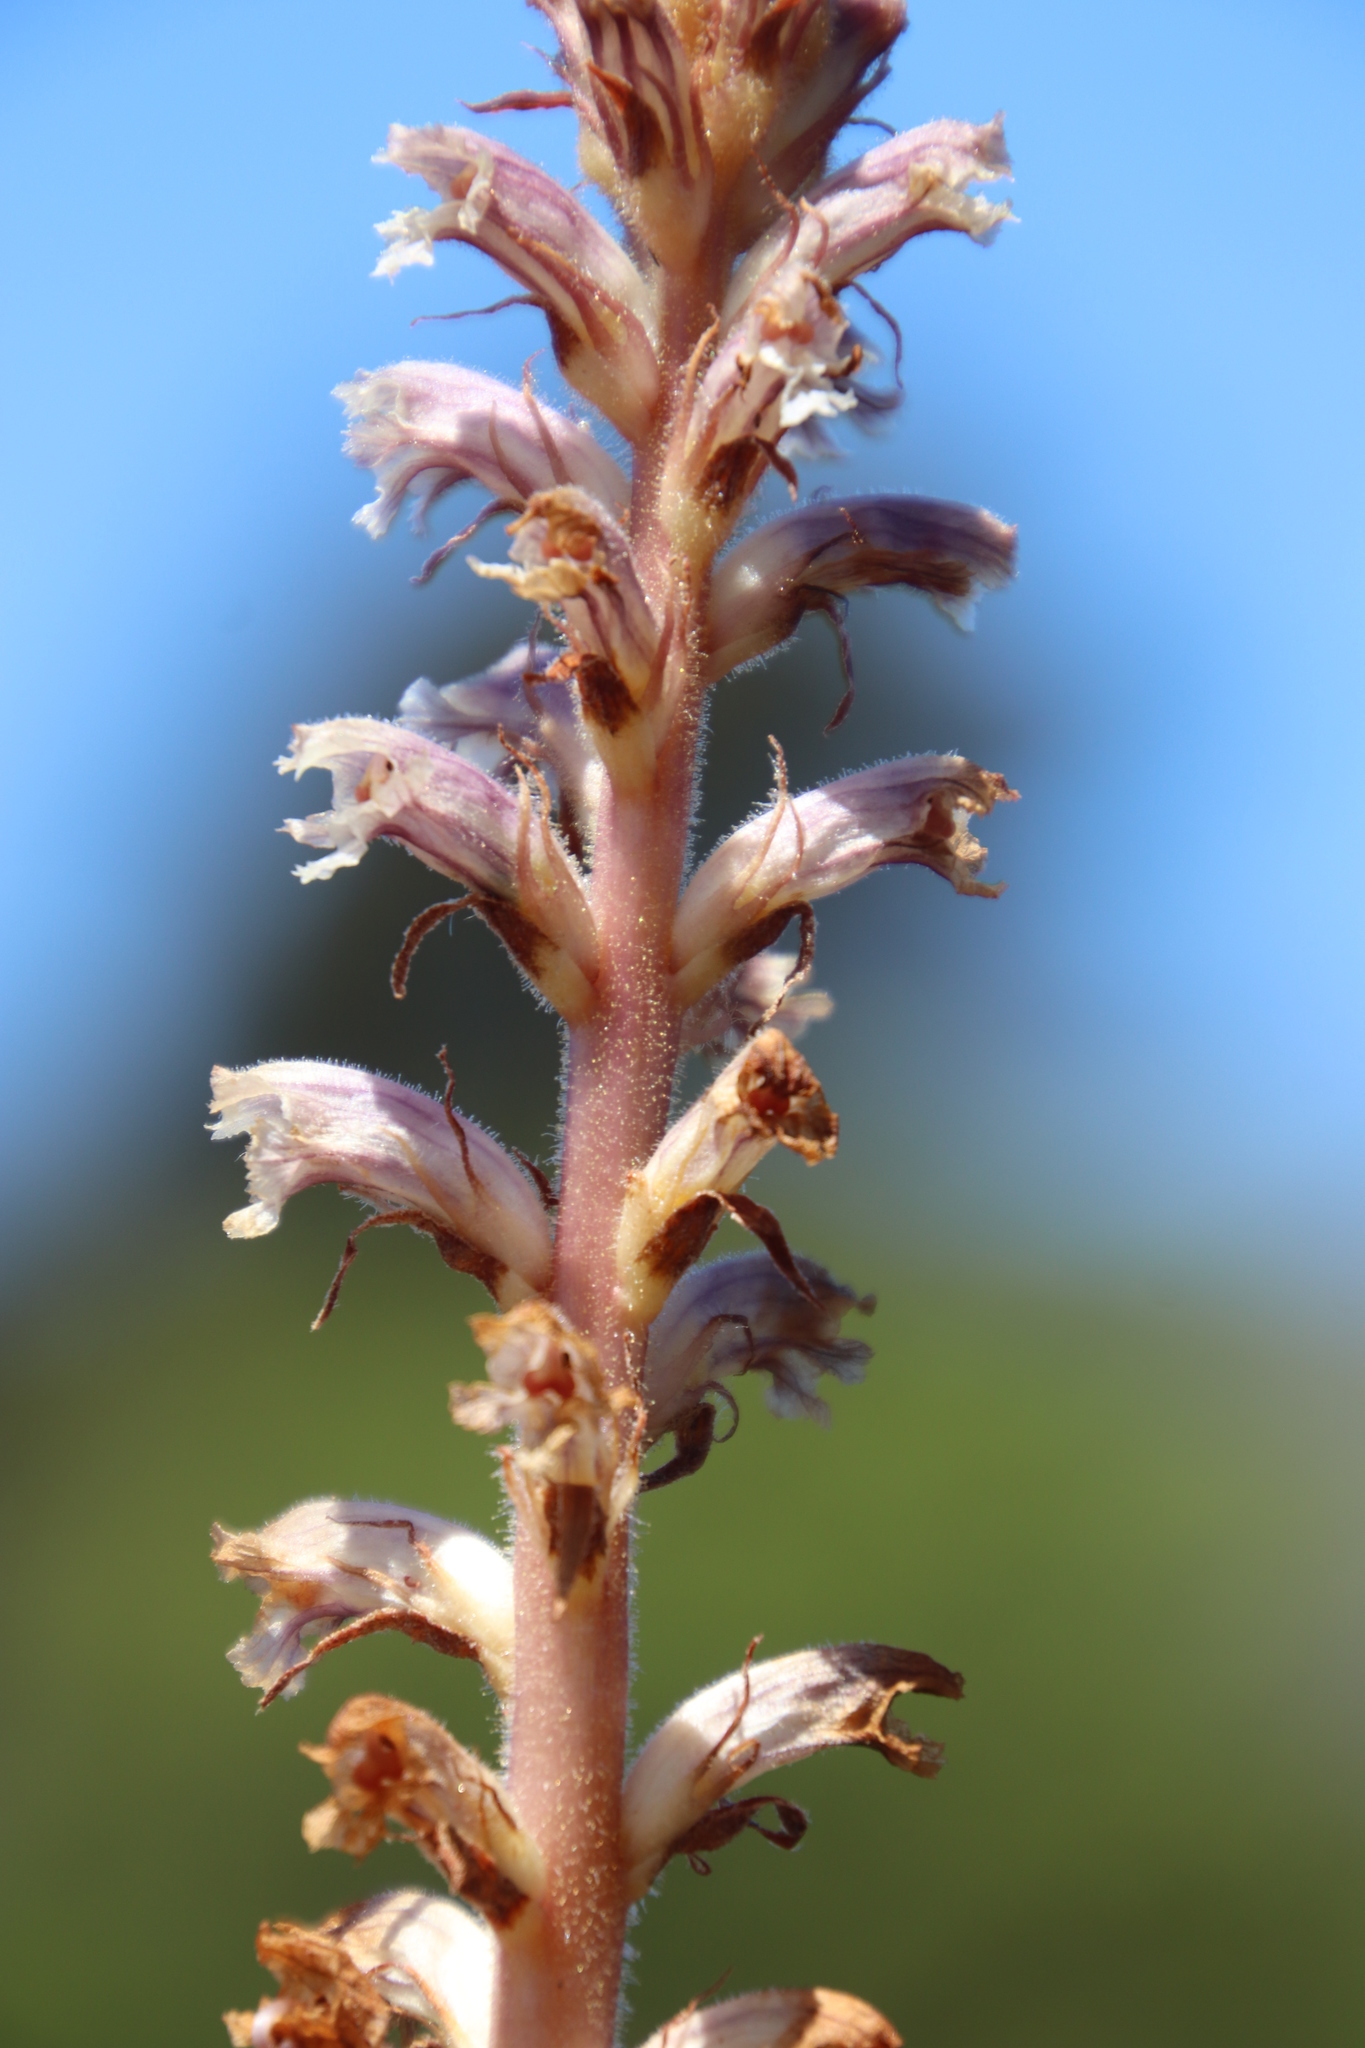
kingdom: Plantae
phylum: Tracheophyta
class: Magnoliopsida
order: Lamiales
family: Orobanchaceae
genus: Orobanche
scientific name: Orobanche minor
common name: Common broomrape
